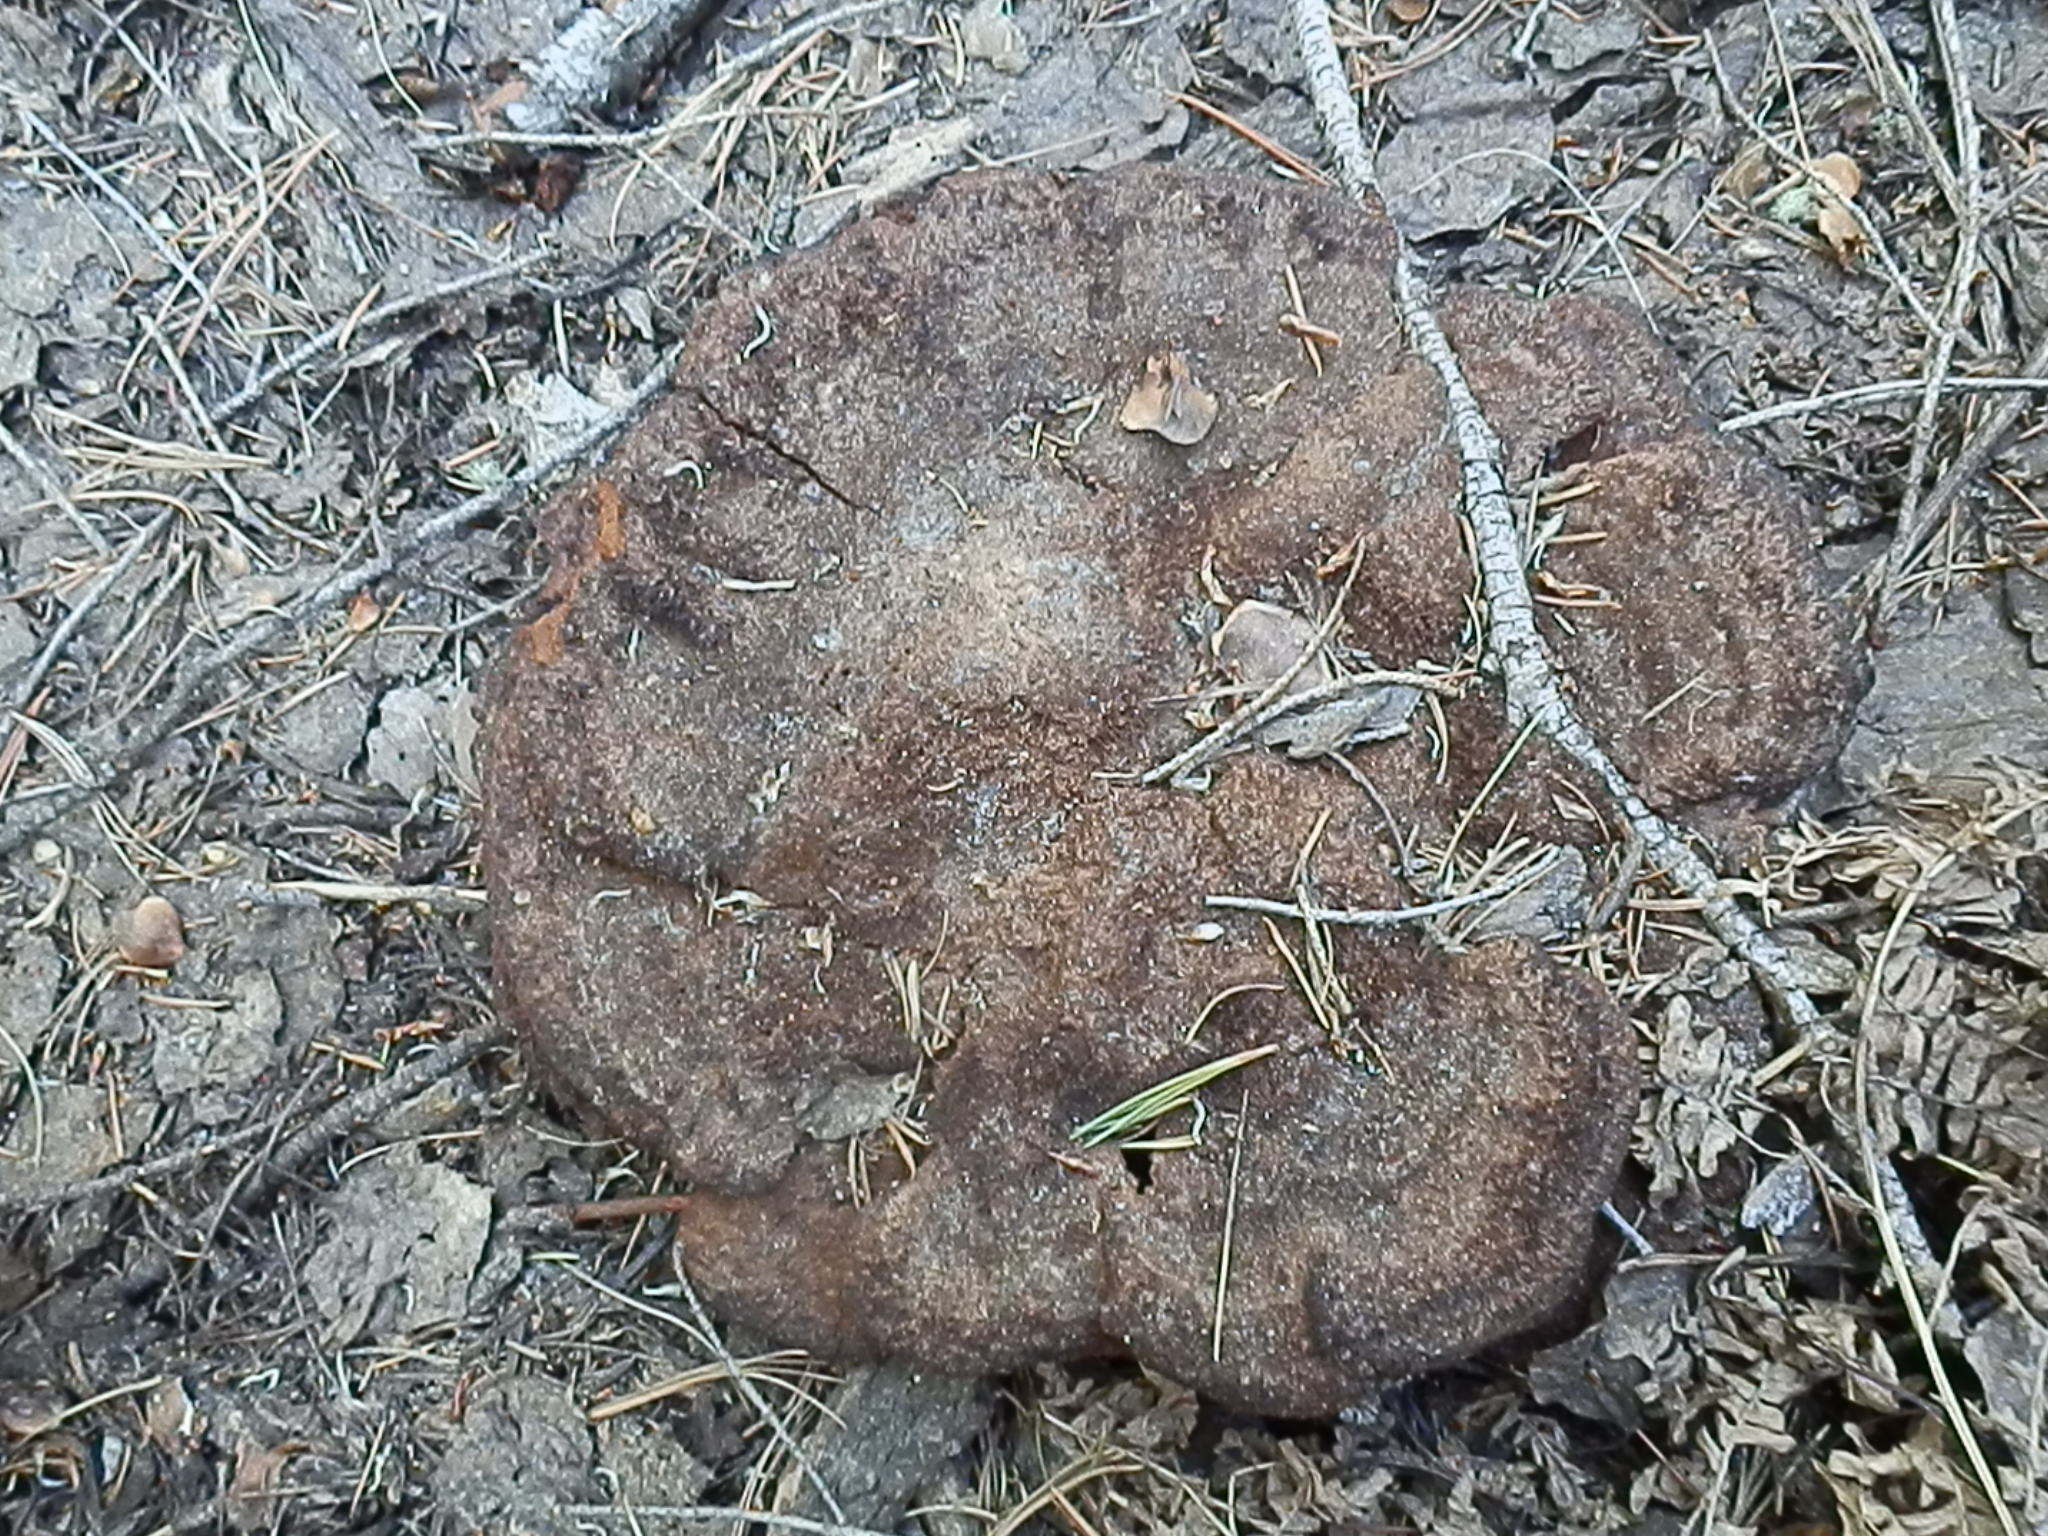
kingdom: Fungi
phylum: Basidiomycota
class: Agaricomycetes
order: Polyporales
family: Laetiporaceae
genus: Phaeolus
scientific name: Phaeolus schweinitzii
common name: Dyer's mazegill
